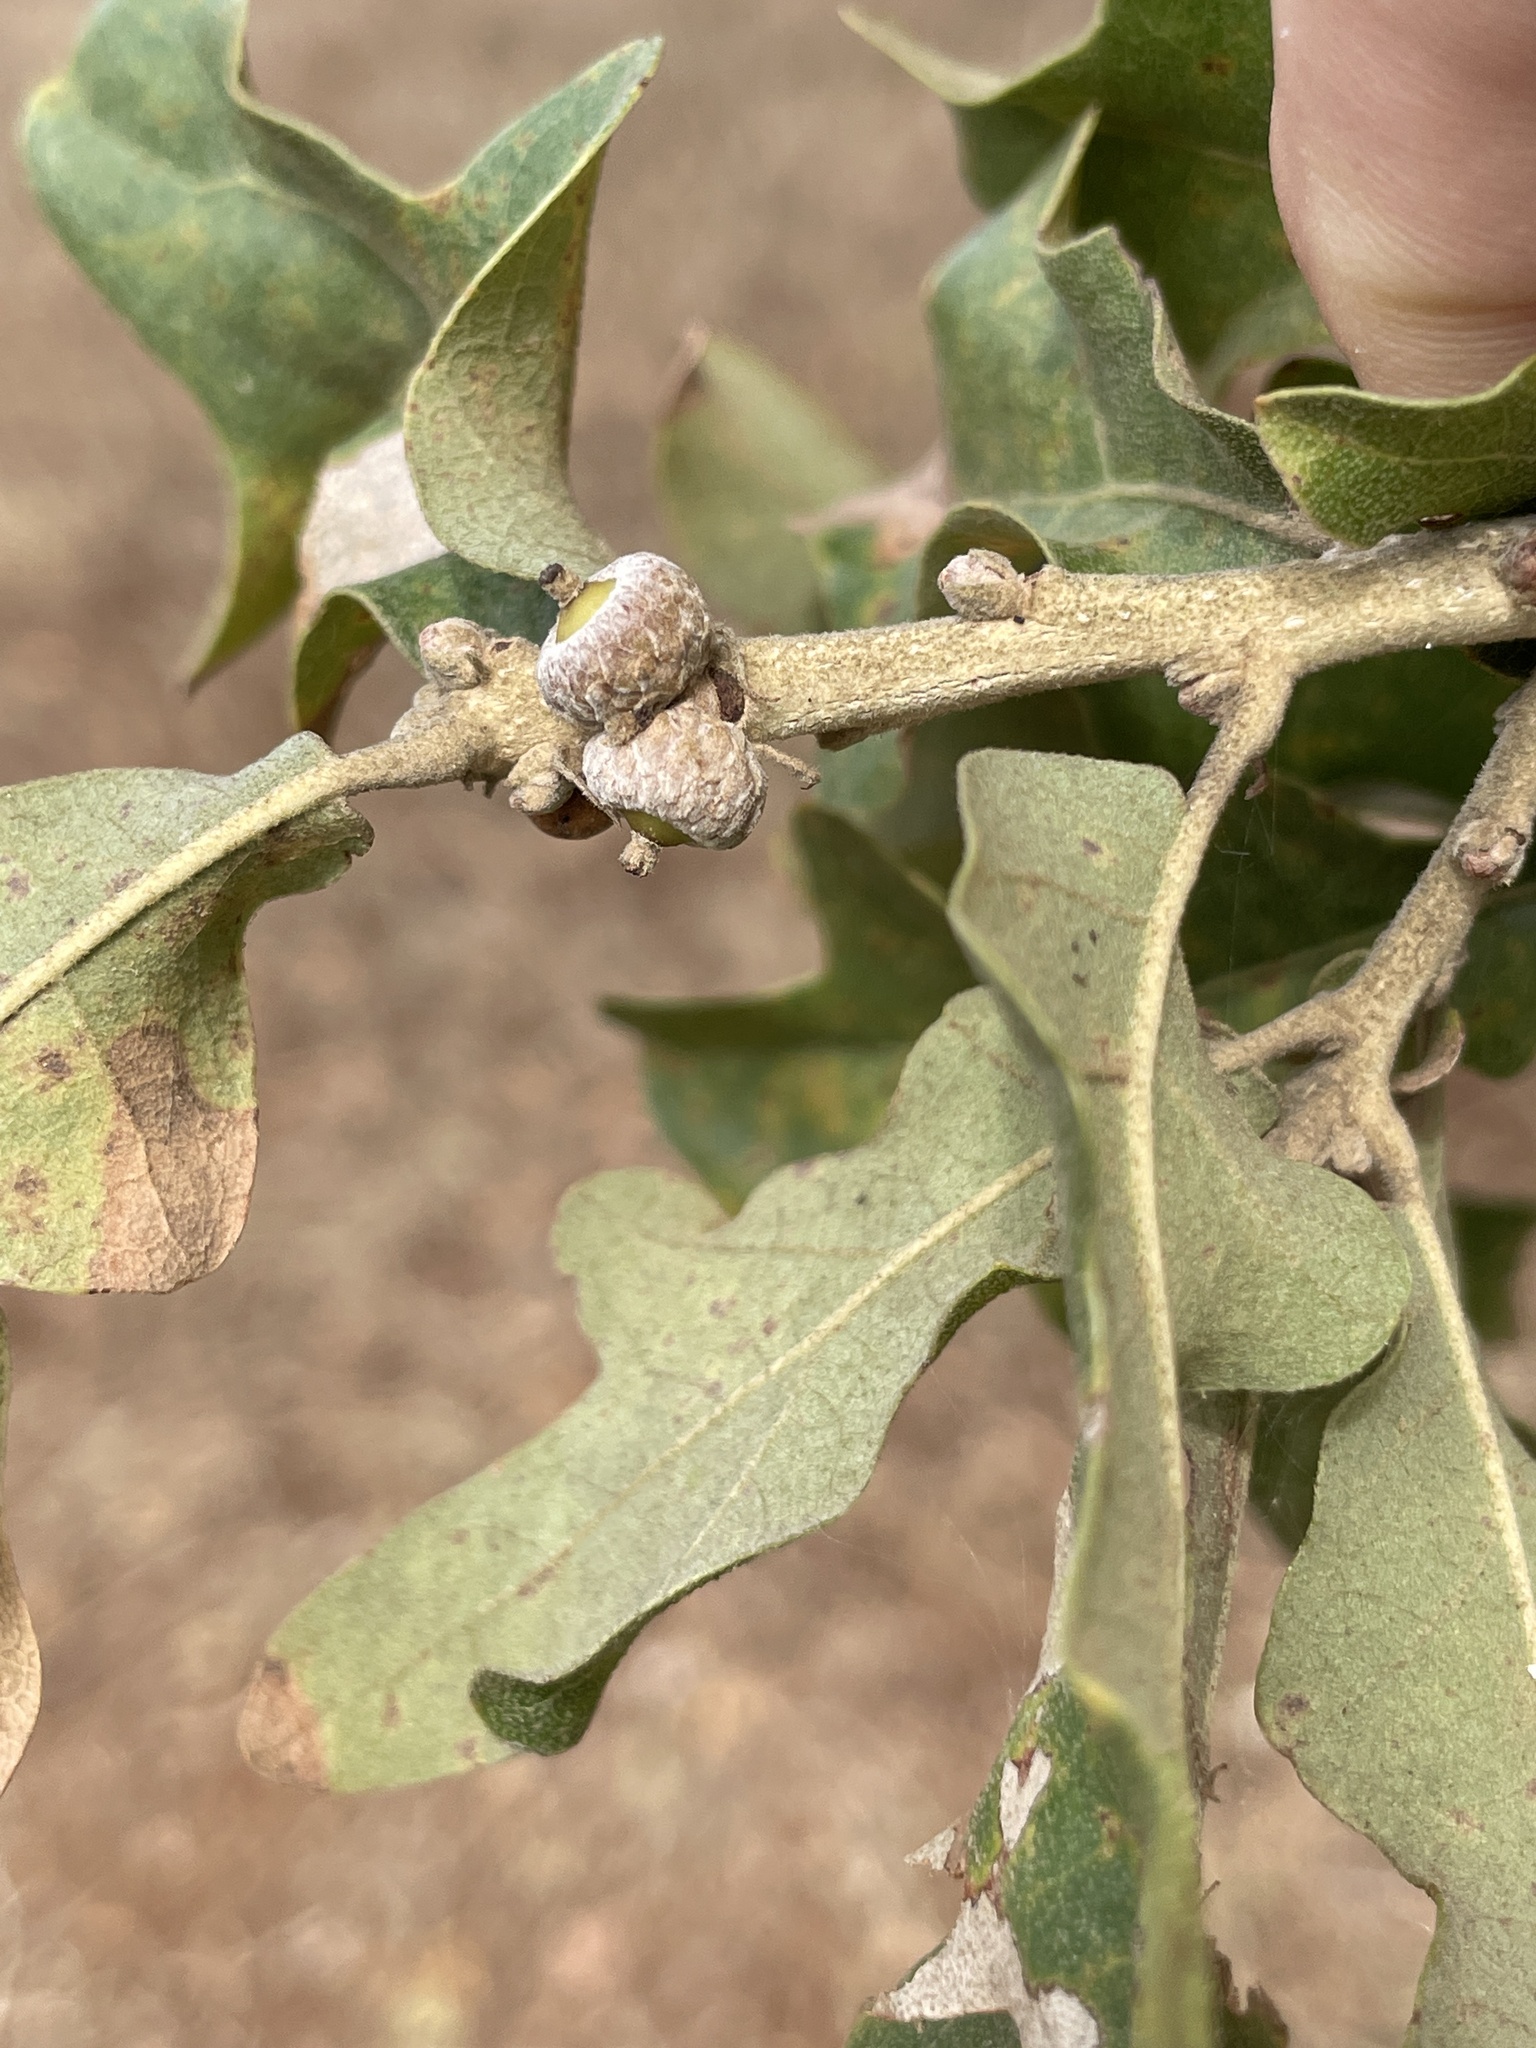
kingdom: Plantae
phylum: Tracheophyta
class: Magnoliopsida
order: Fagales
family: Fagaceae
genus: Quercus
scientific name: Quercus stellata
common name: Post oak
